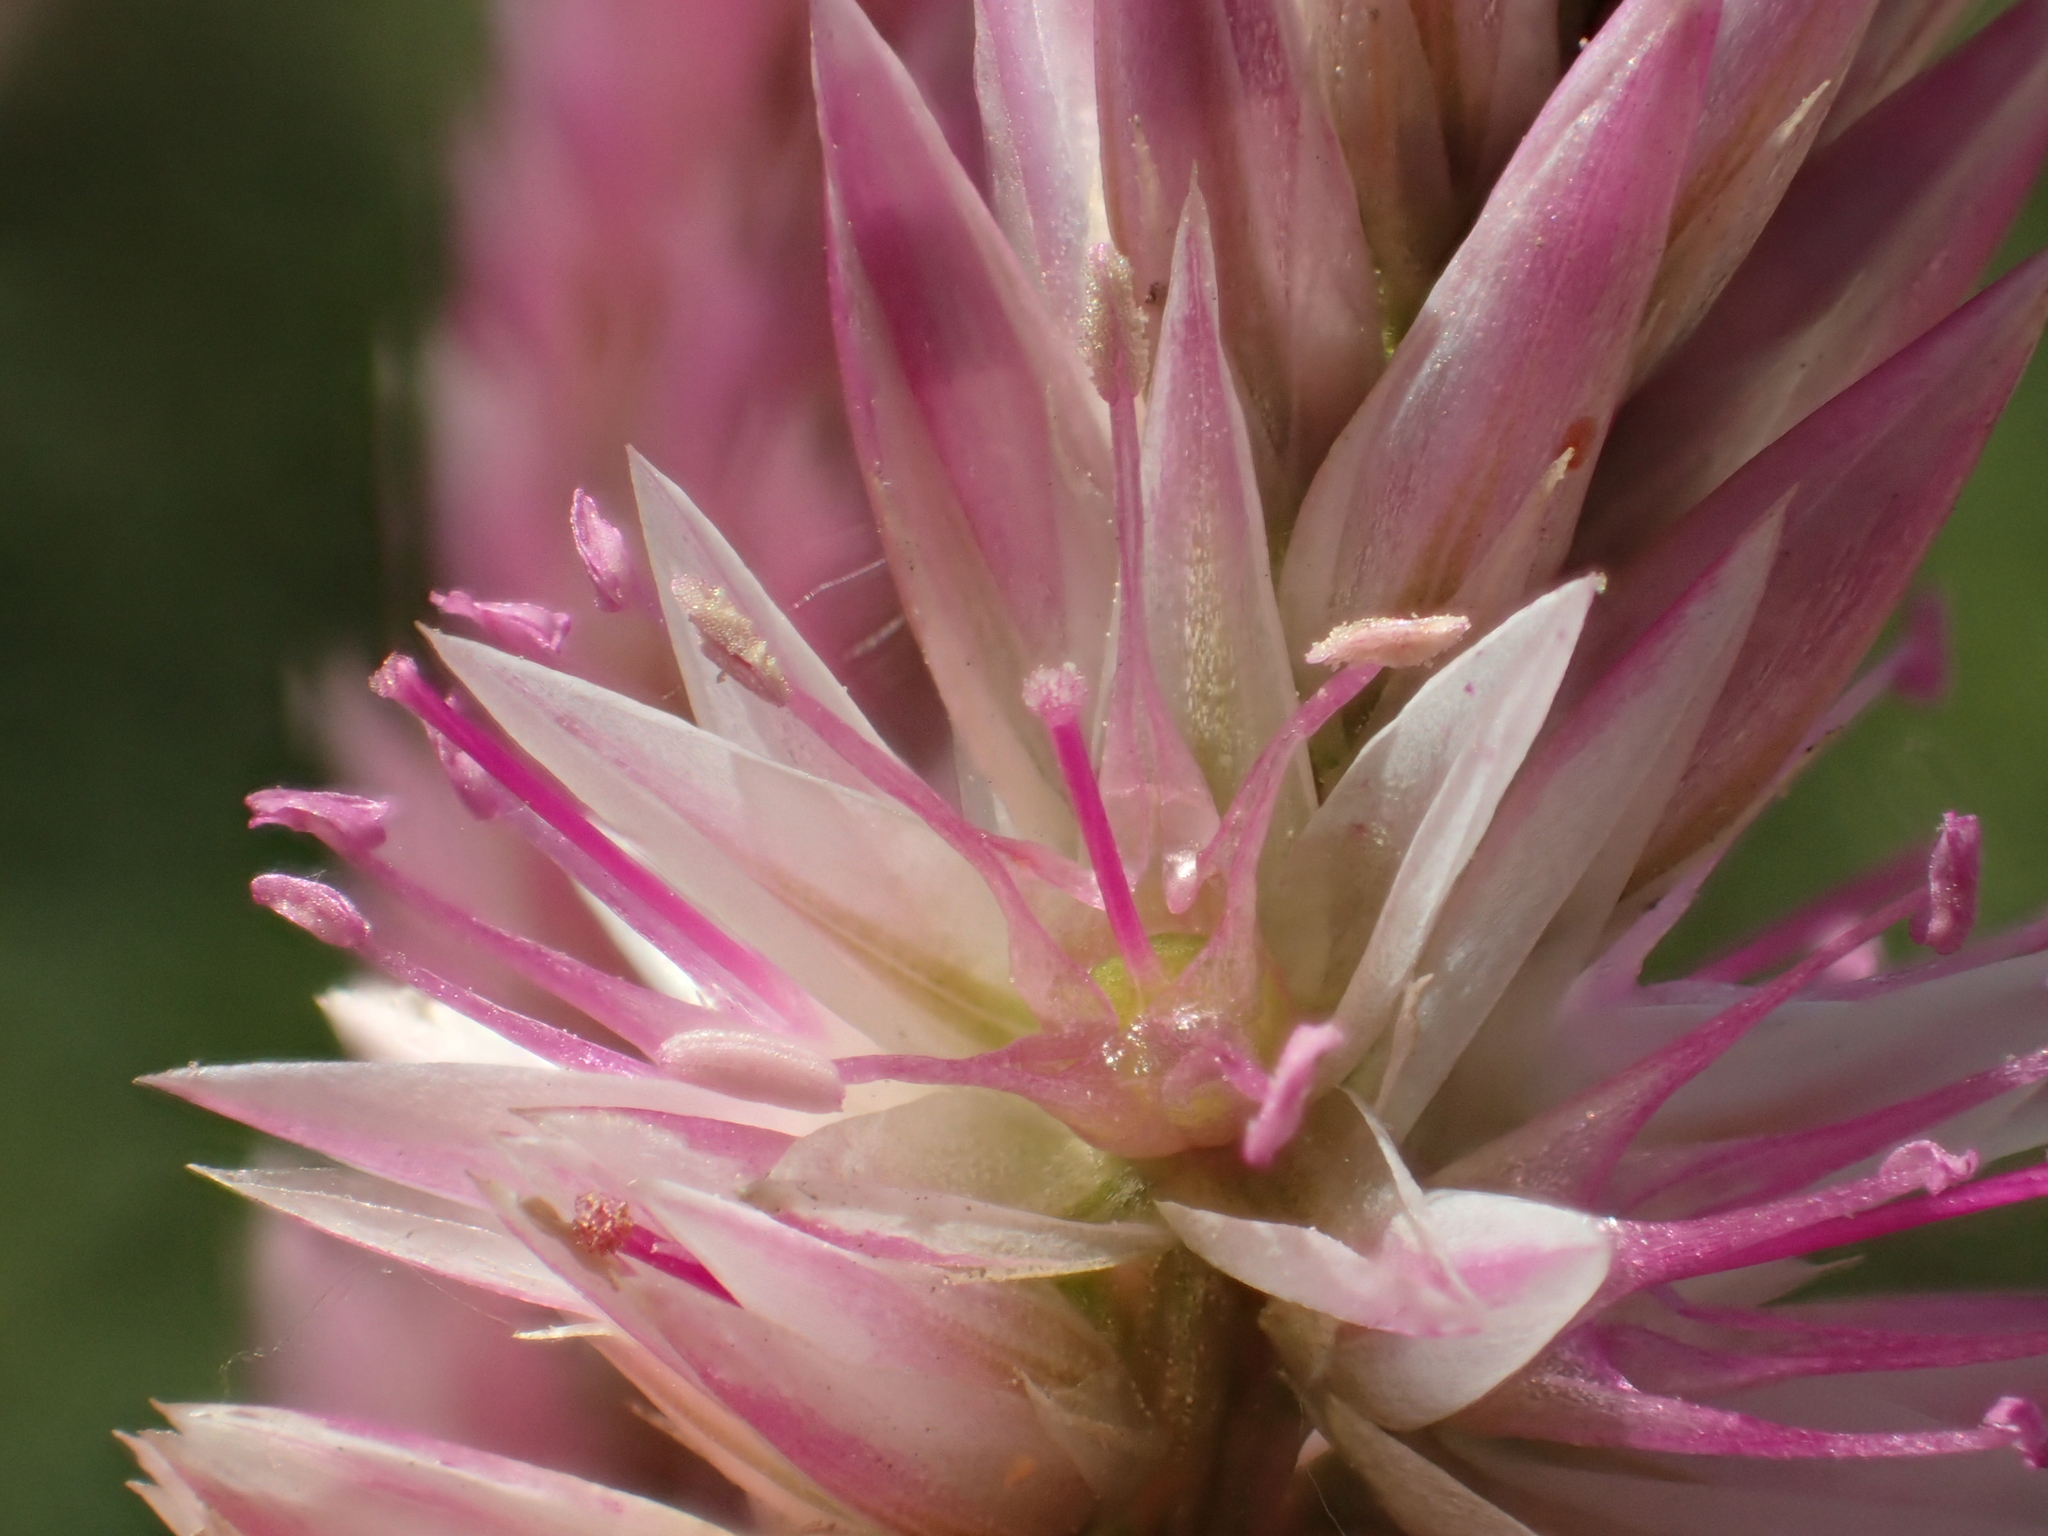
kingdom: Plantae
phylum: Tracheophyta
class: Magnoliopsida
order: Caryophyllales
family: Amaranthaceae
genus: Celosia
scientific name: Celosia argentea
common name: Feather cockscomb
